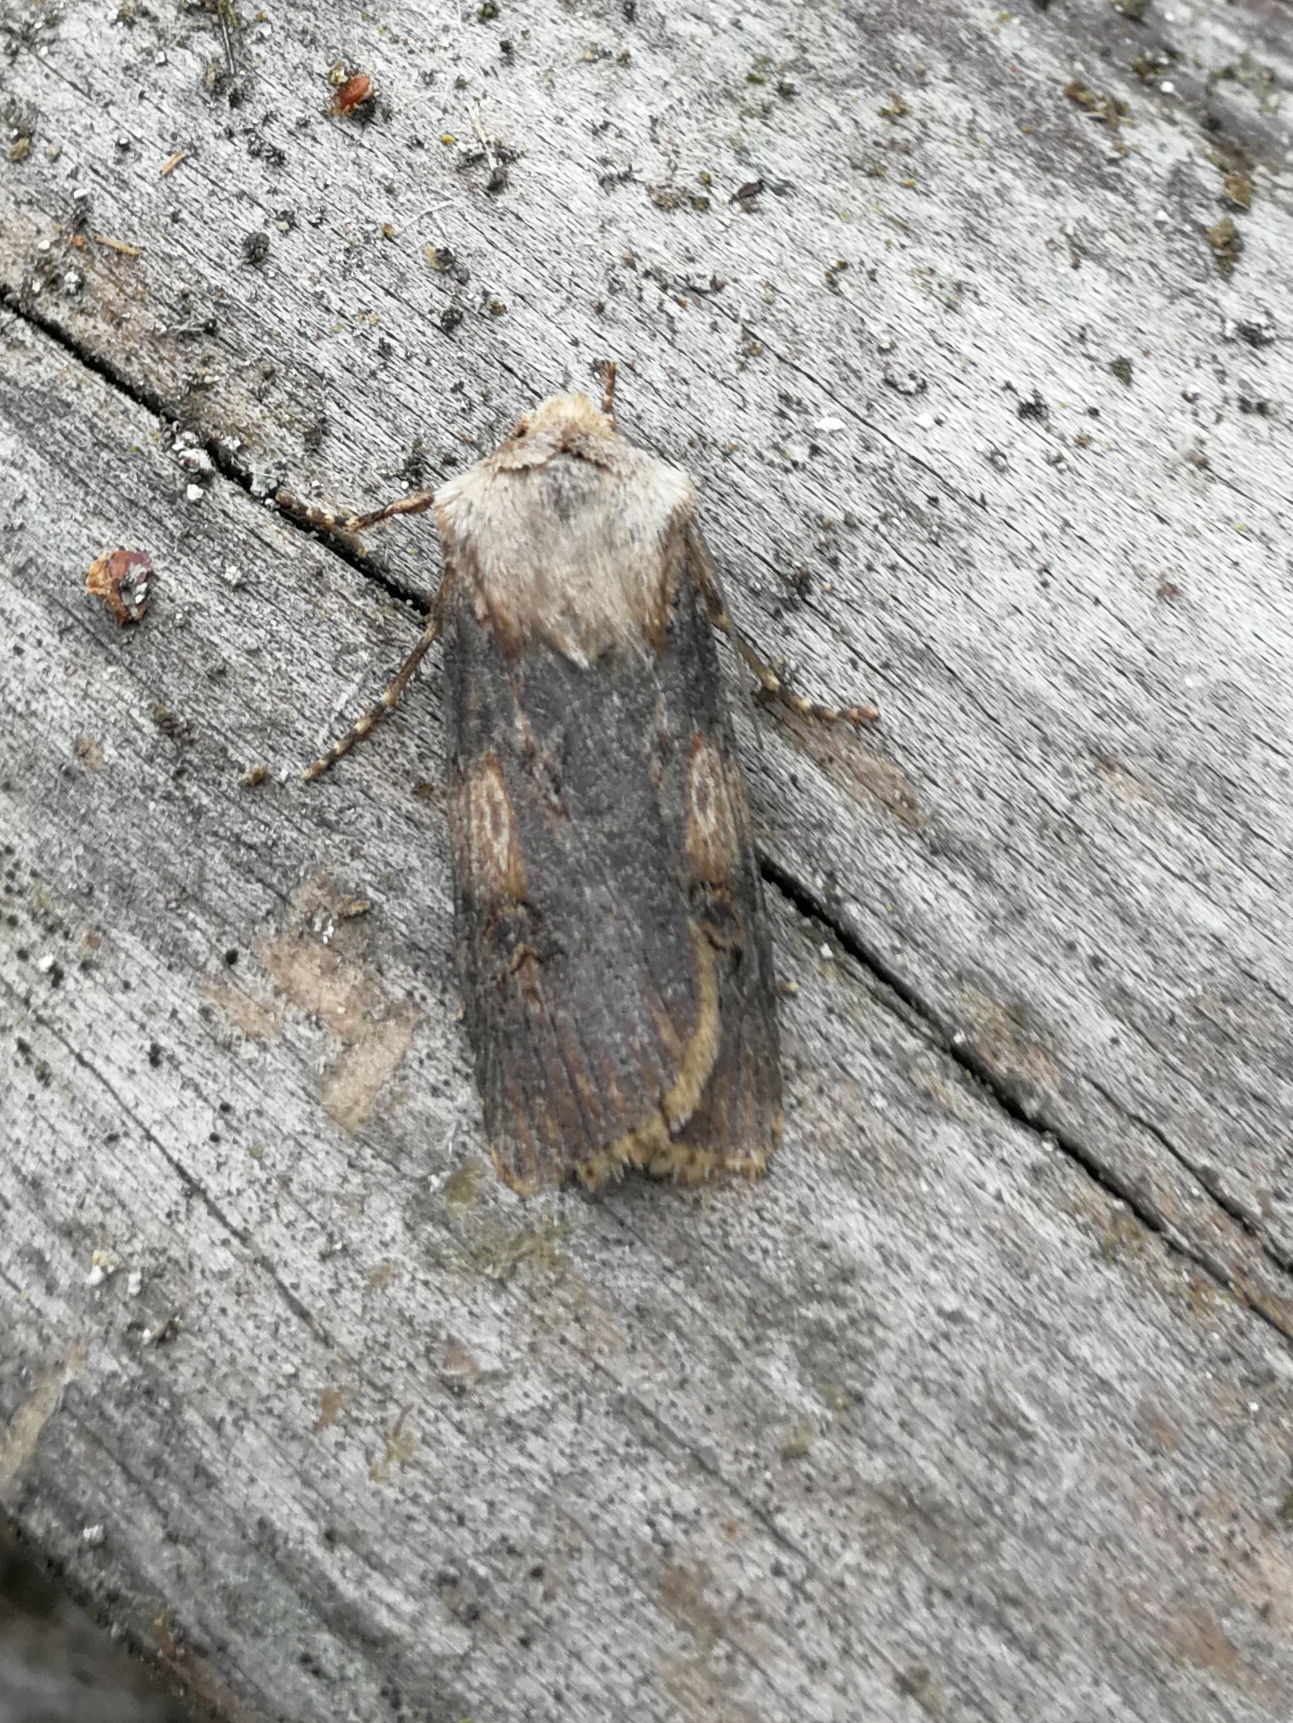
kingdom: Animalia
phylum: Arthropoda
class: Insecta
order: Lepidoptera
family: Noctuidae
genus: Agrotis
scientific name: Agrotis puta
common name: Shuttle-shaped dart
